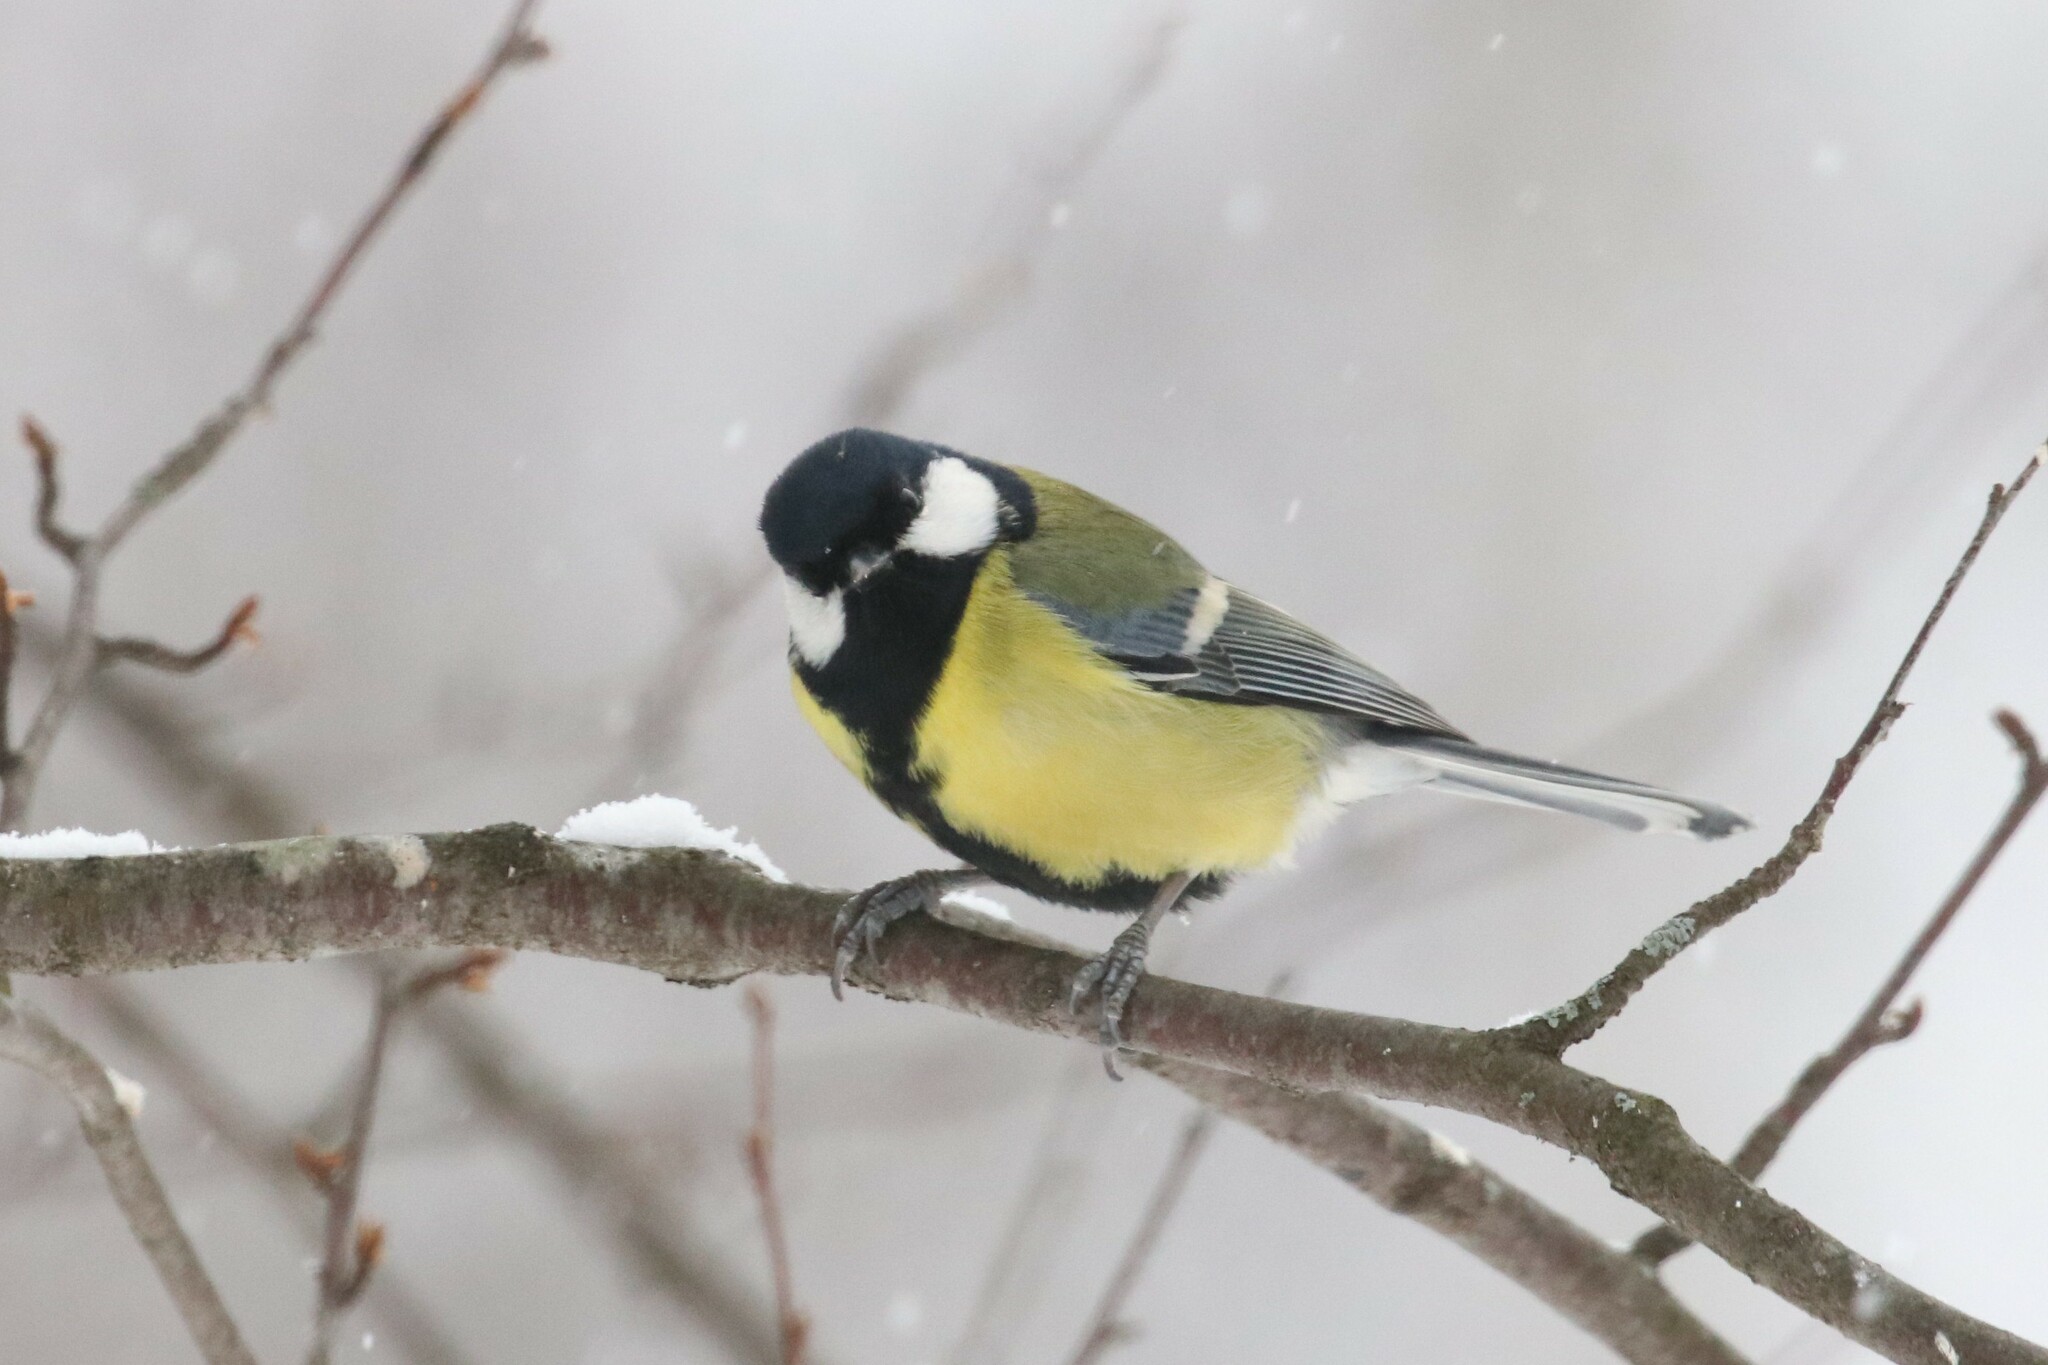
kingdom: Animalia
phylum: Chordata
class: Aves
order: Passeriformes
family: Paridae
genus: Parus
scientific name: Parus major
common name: Great tit
